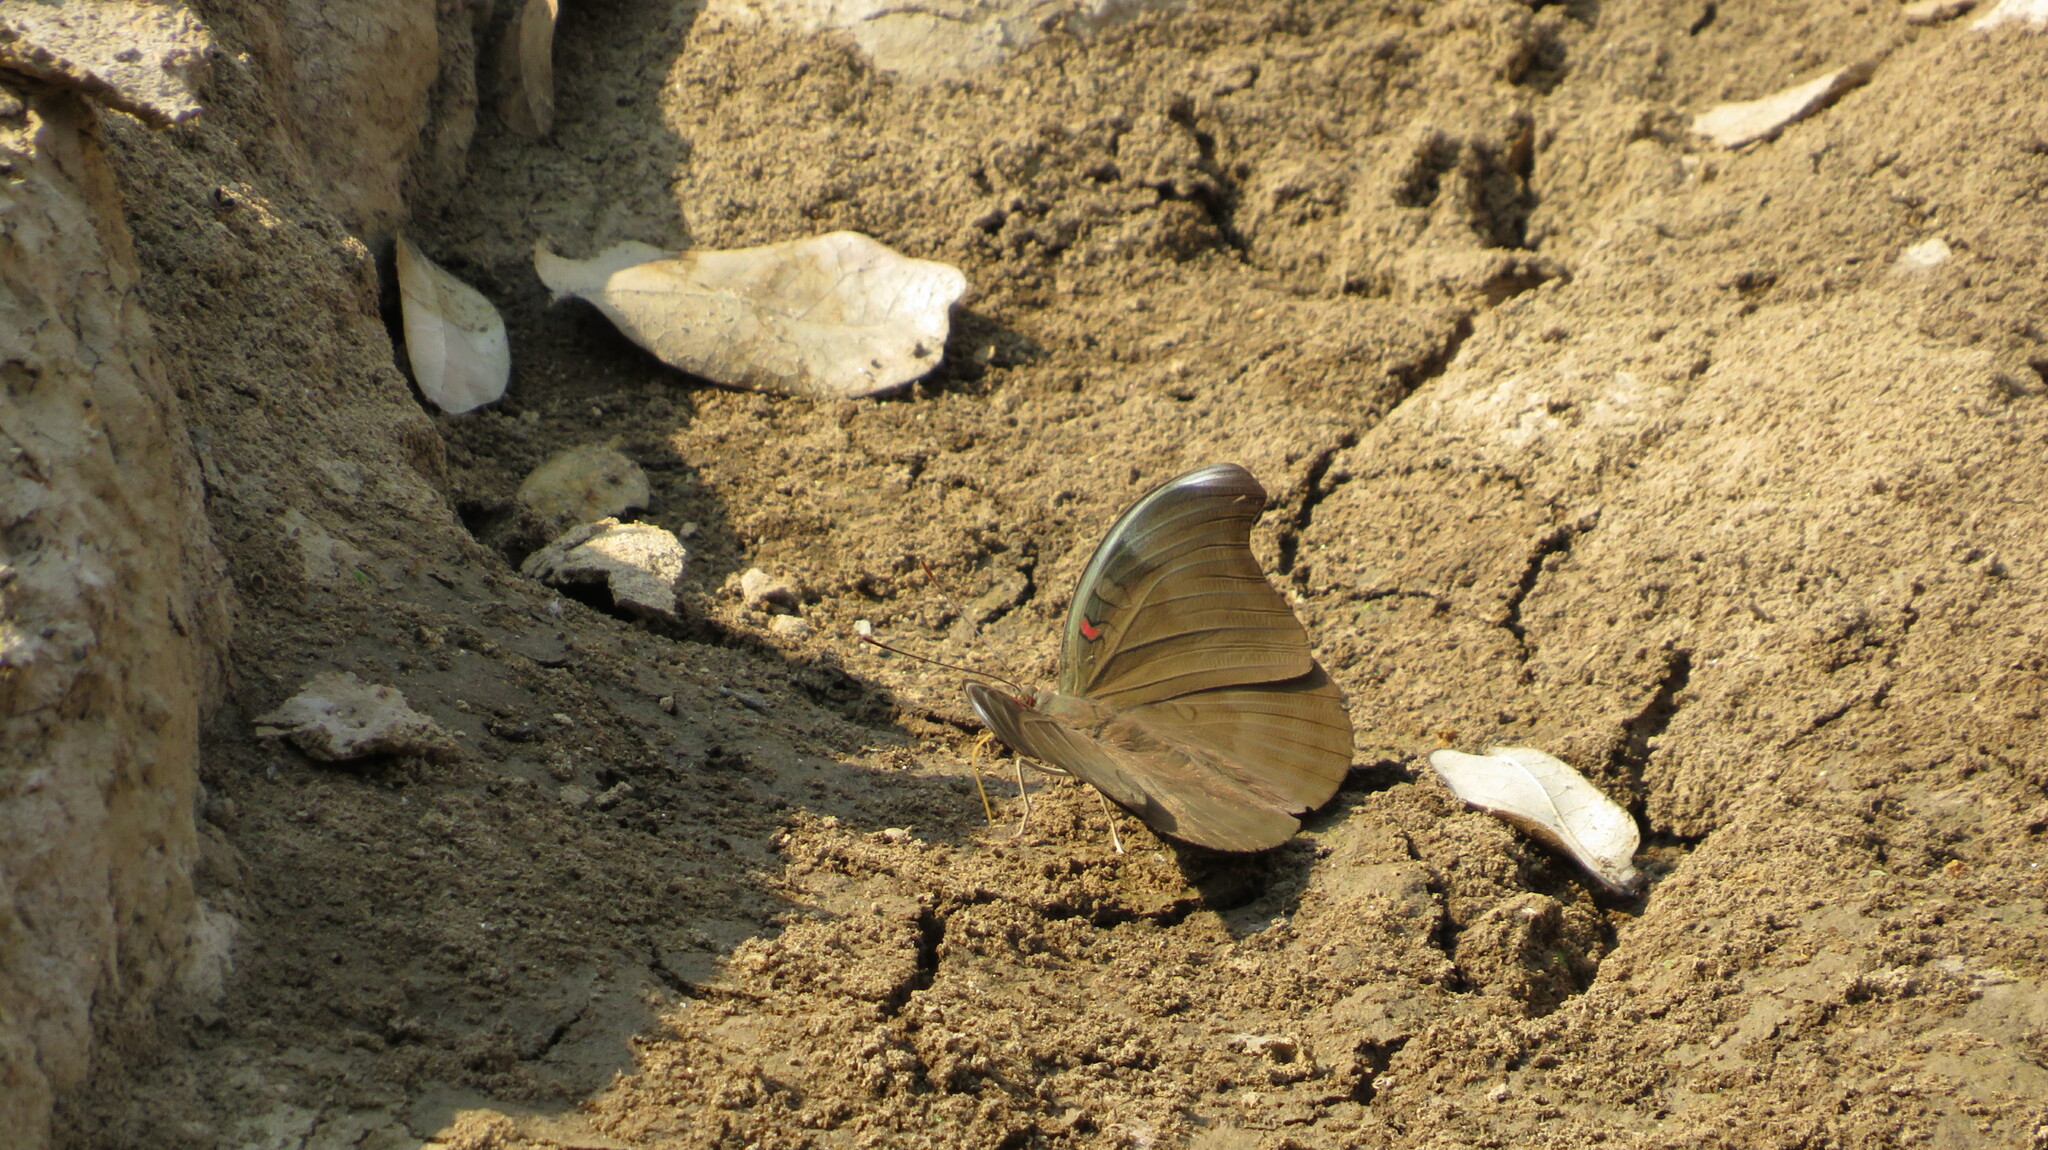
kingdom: Animalia
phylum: Arthropoda
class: Insecta
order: Lepidoptera
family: Nymphalidae
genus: Euthalia
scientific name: Euthalia Dophla evelina
